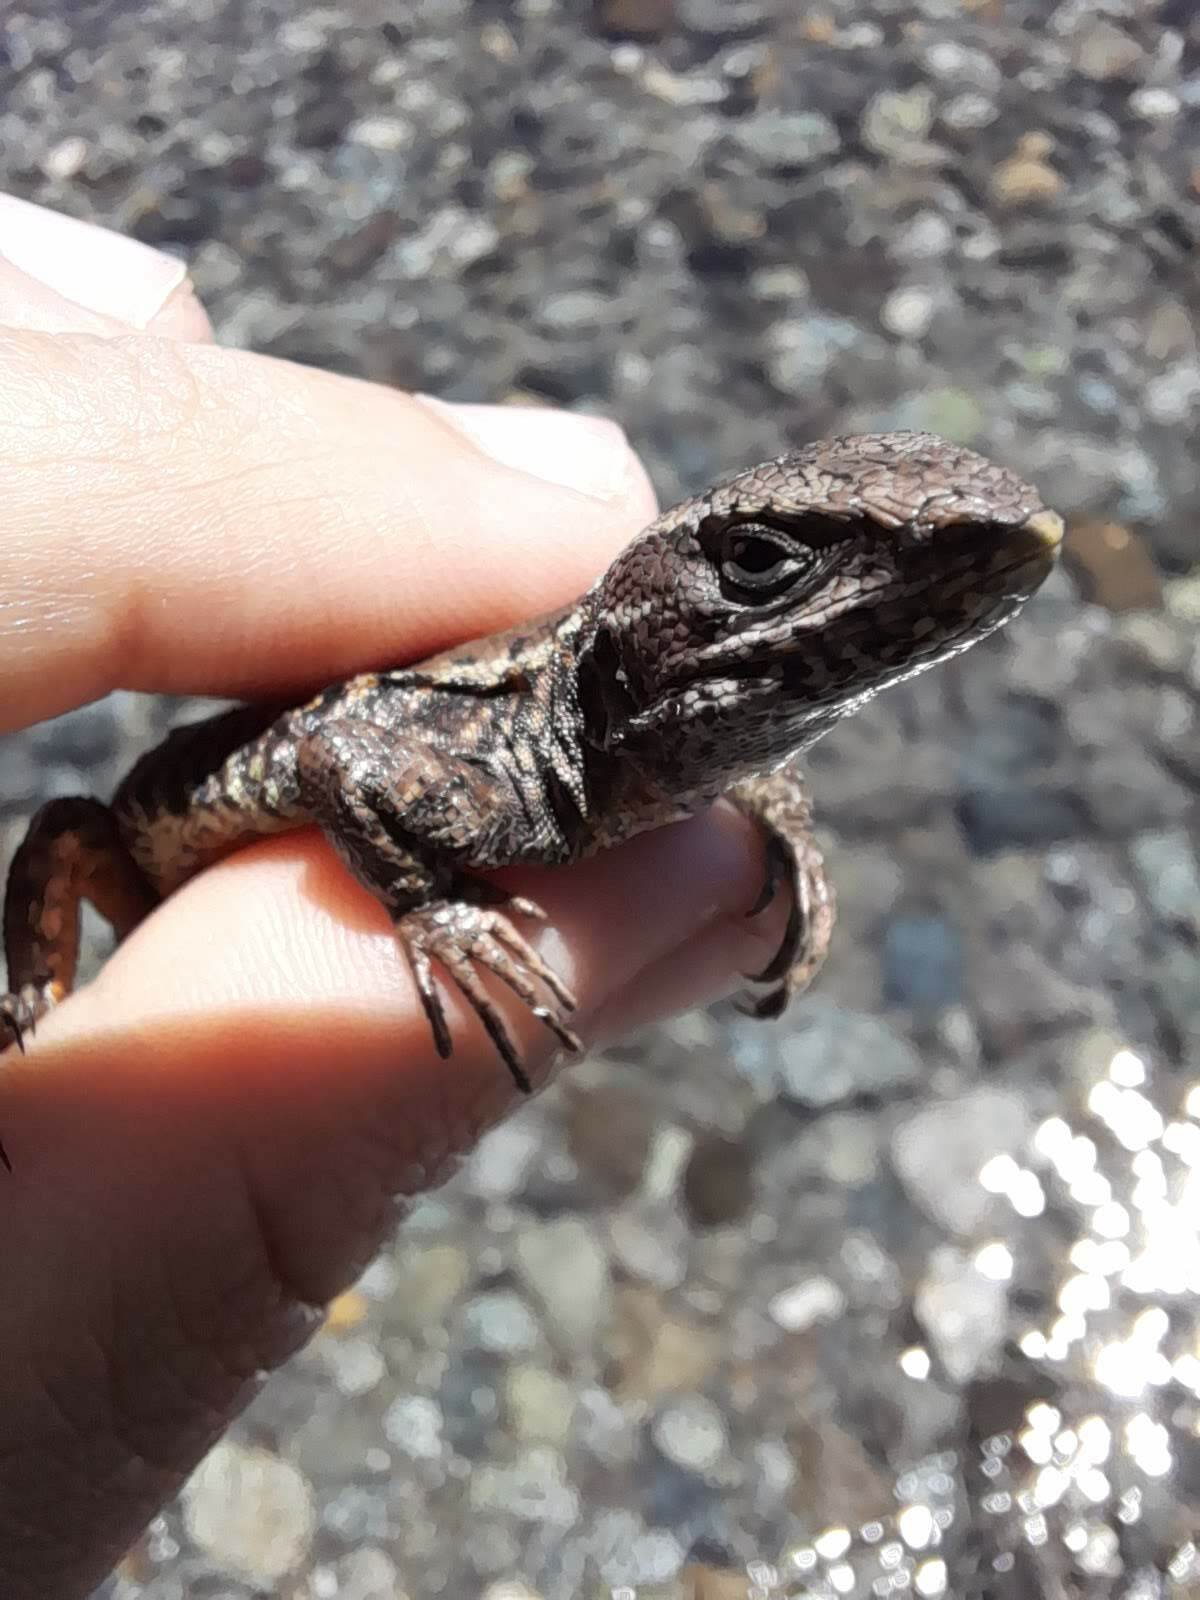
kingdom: Animalia
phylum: Chordata
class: Squamata
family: Liolaemidae
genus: Liolaemus
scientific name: Liolaemus pictus
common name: Painted tree iguana
